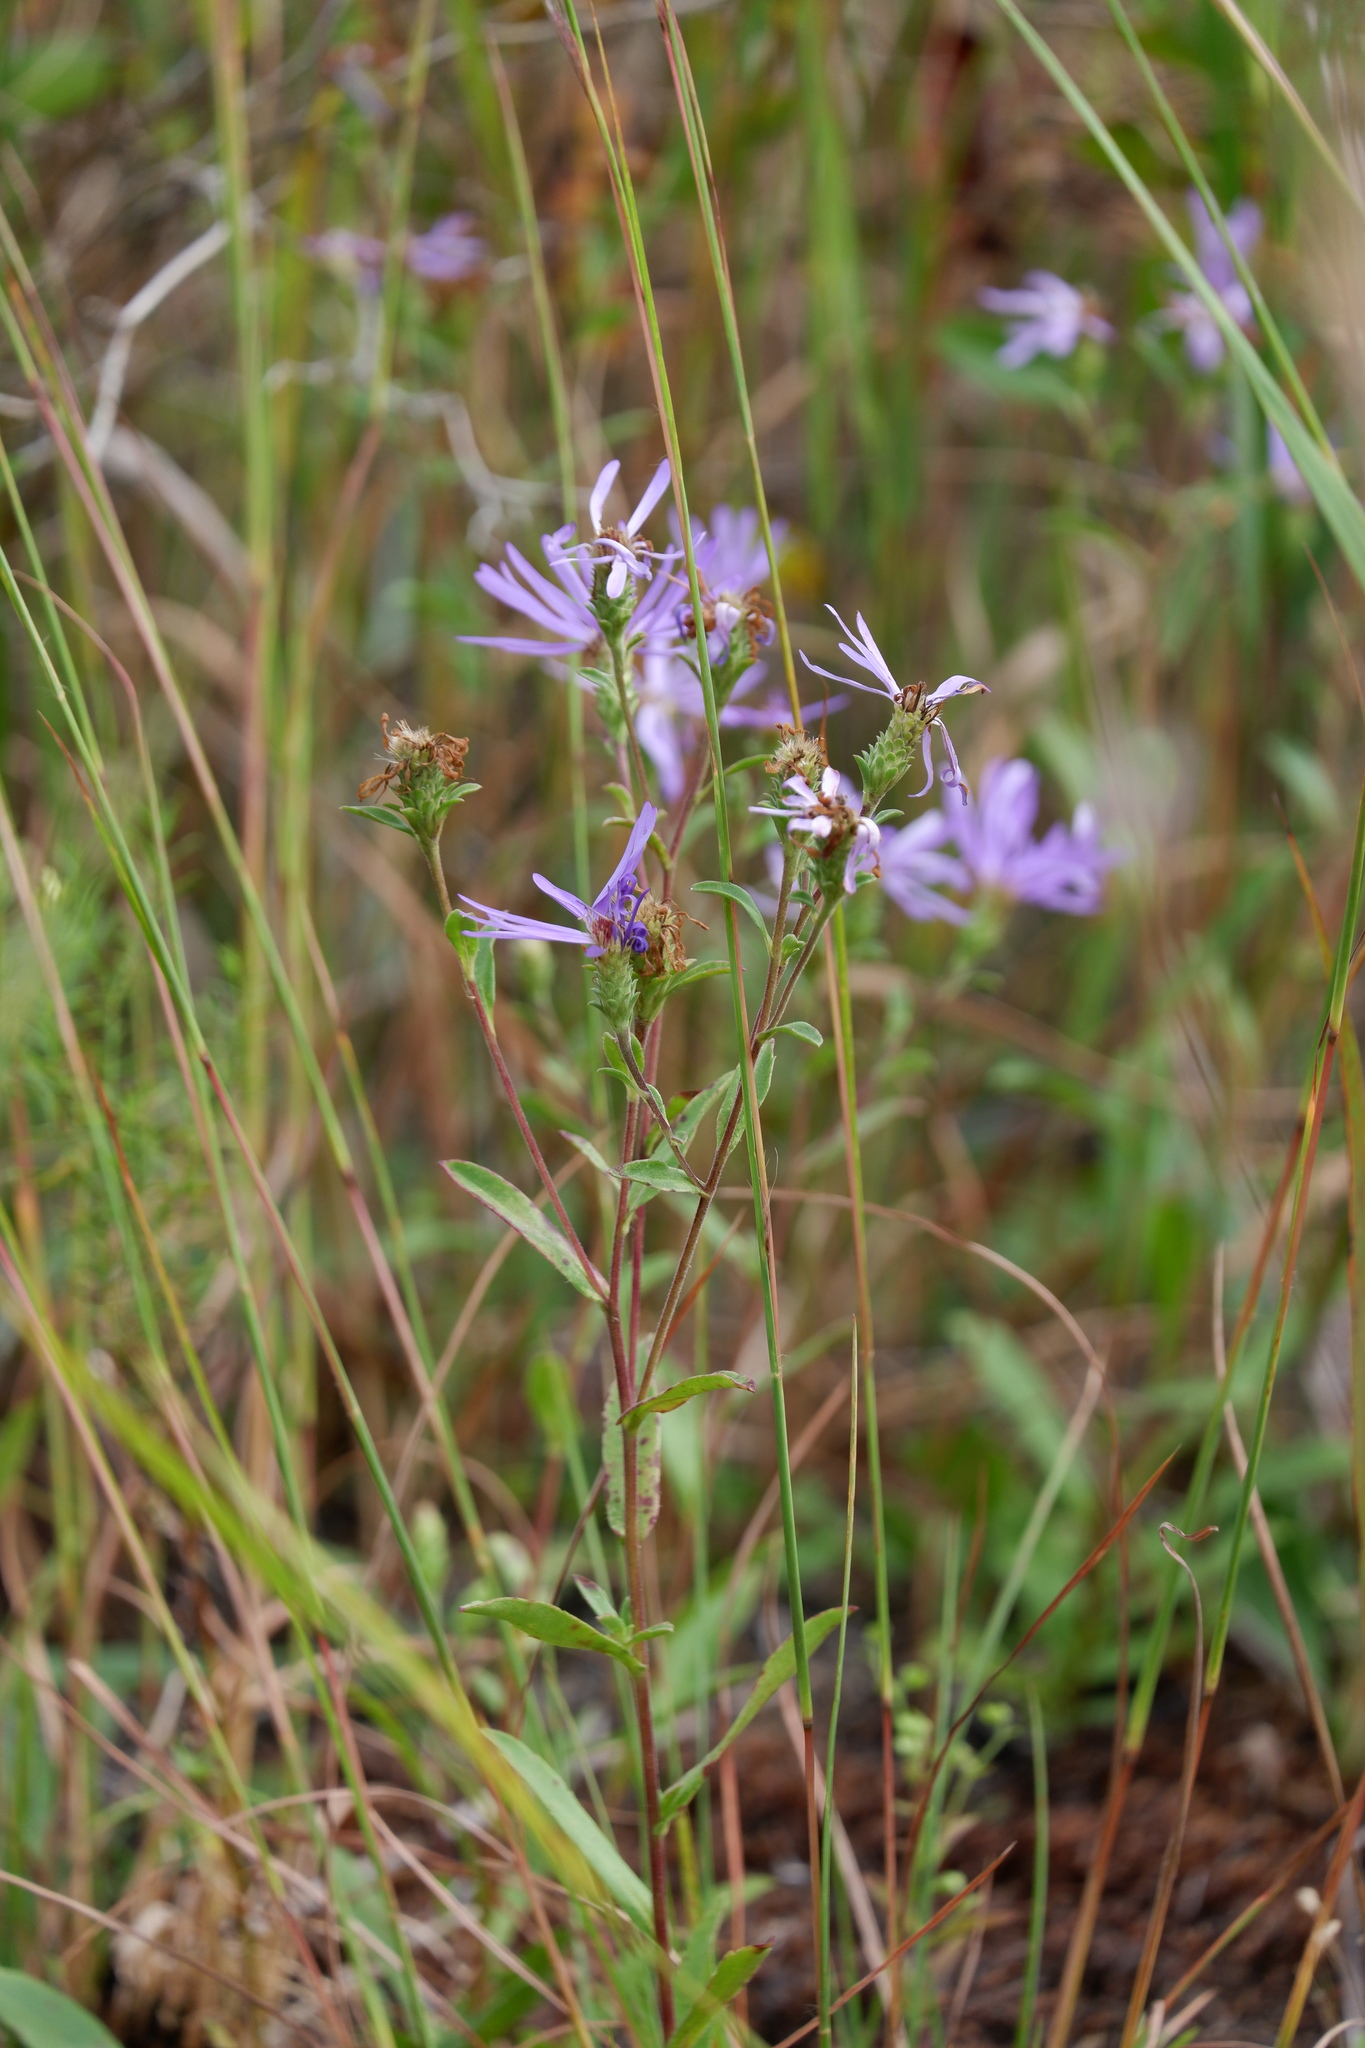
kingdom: Plantae
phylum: Tracheophyta
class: Magnoliopsida
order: Asterales
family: Asteraceae
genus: Eurybia
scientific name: Eurybia spectabilis
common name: Low showy aster
